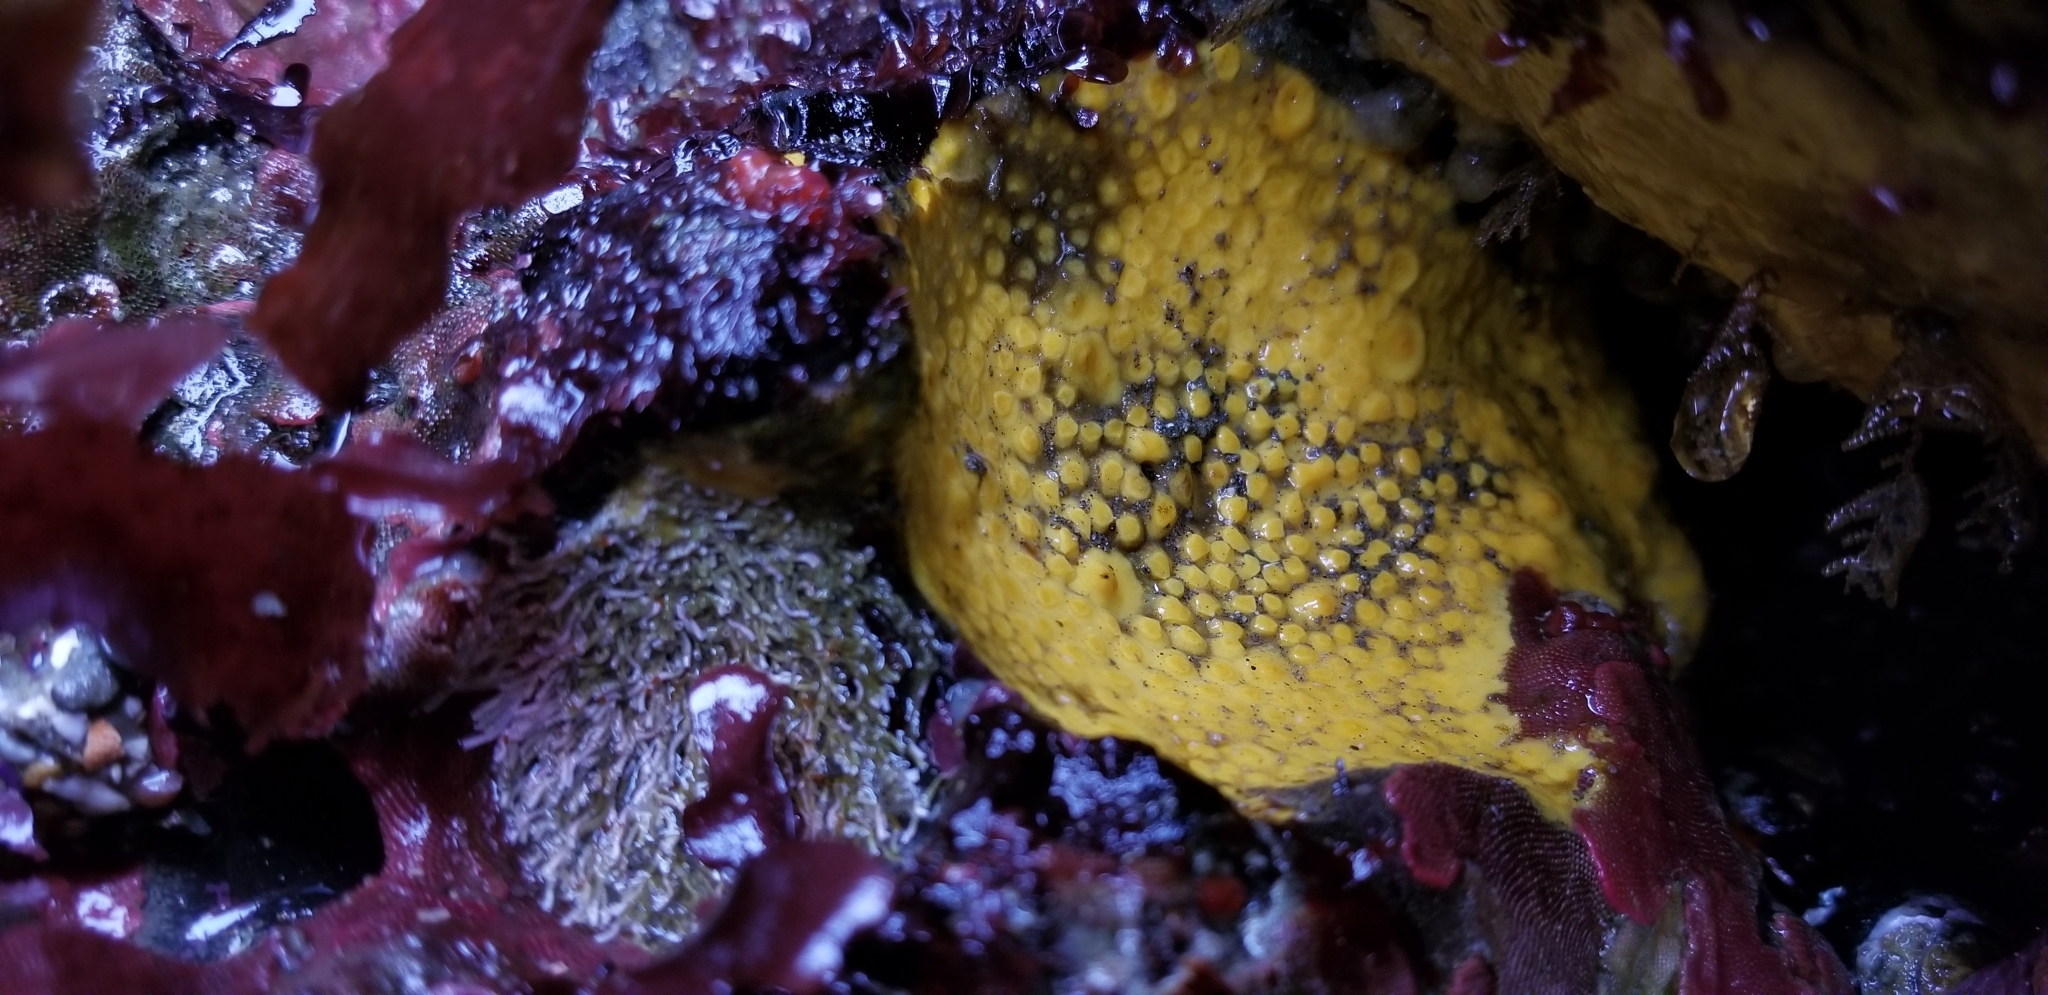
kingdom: Animalia
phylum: Porifera
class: Demospongiae
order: Clionaida
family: Clionaidae
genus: Cliona
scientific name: Cliona californiana
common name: California boring horny sponge
